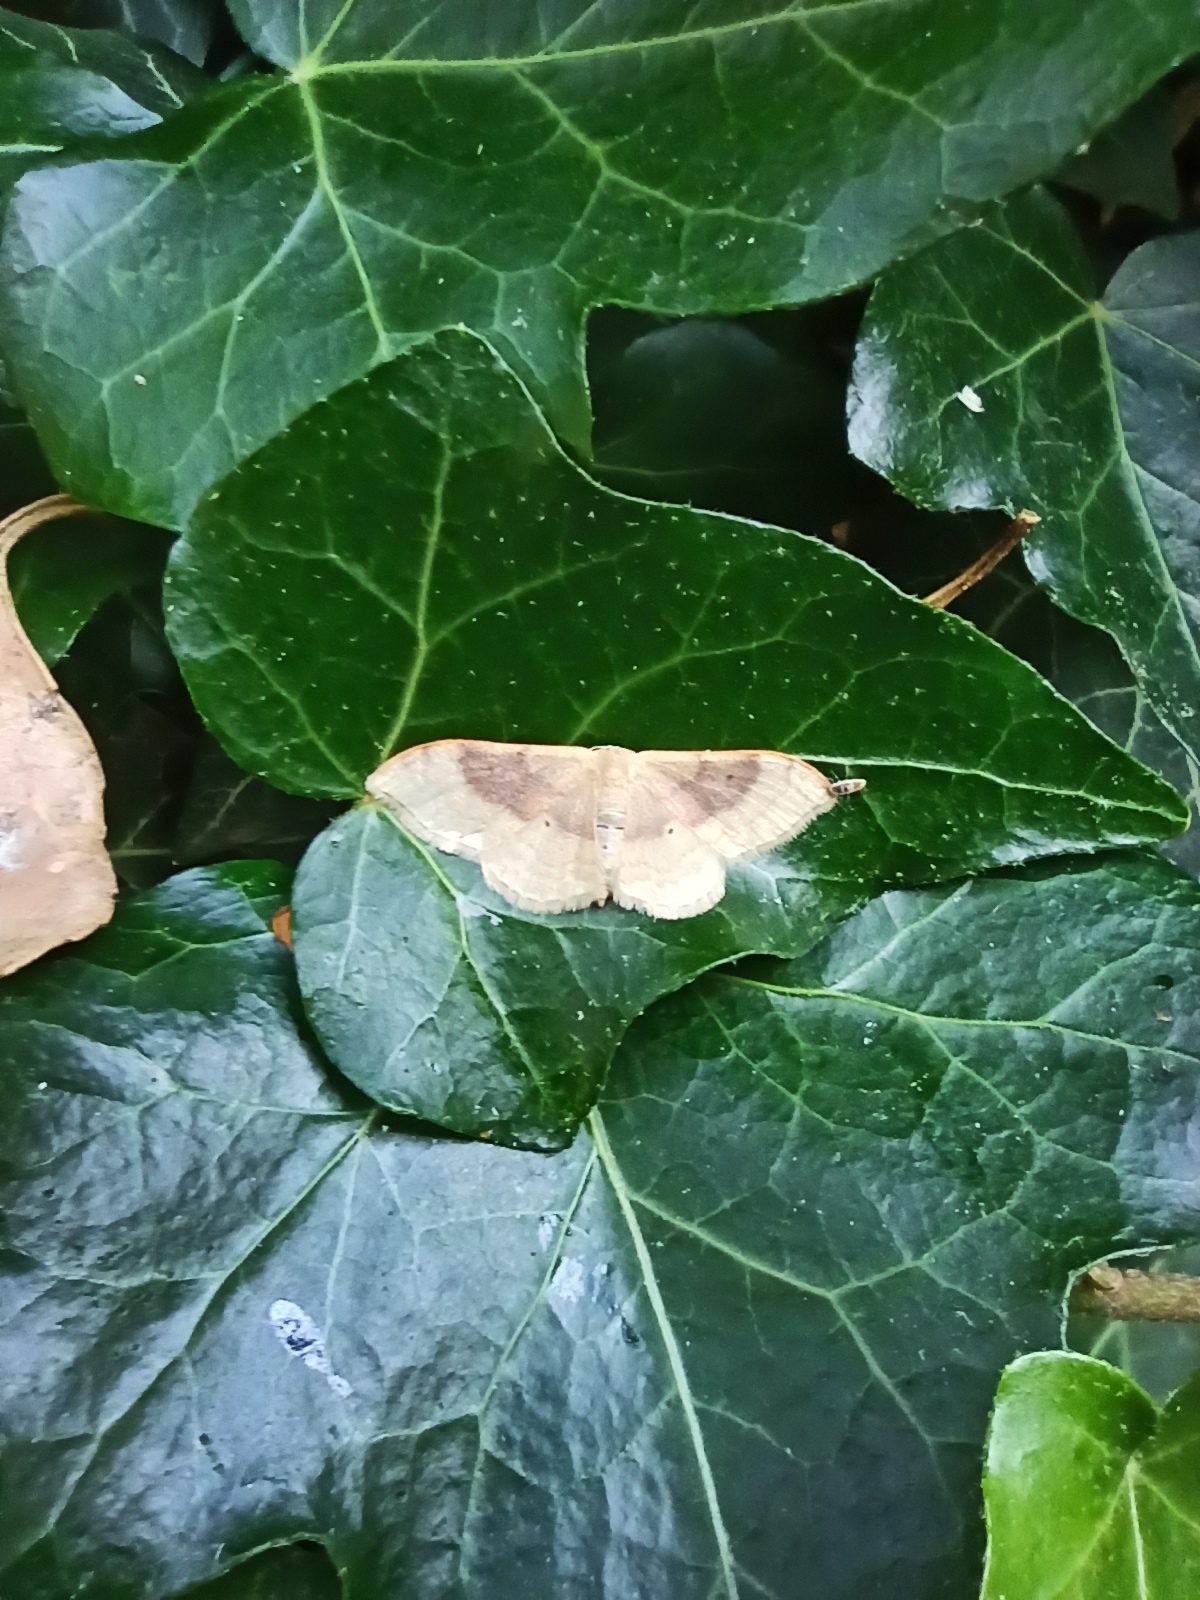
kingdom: Animalia
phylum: Arthropoda
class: Insecta
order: Lepidoptera
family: Geometridae
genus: Idaea
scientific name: Idaea degeneraria
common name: Portland ribbon wave
